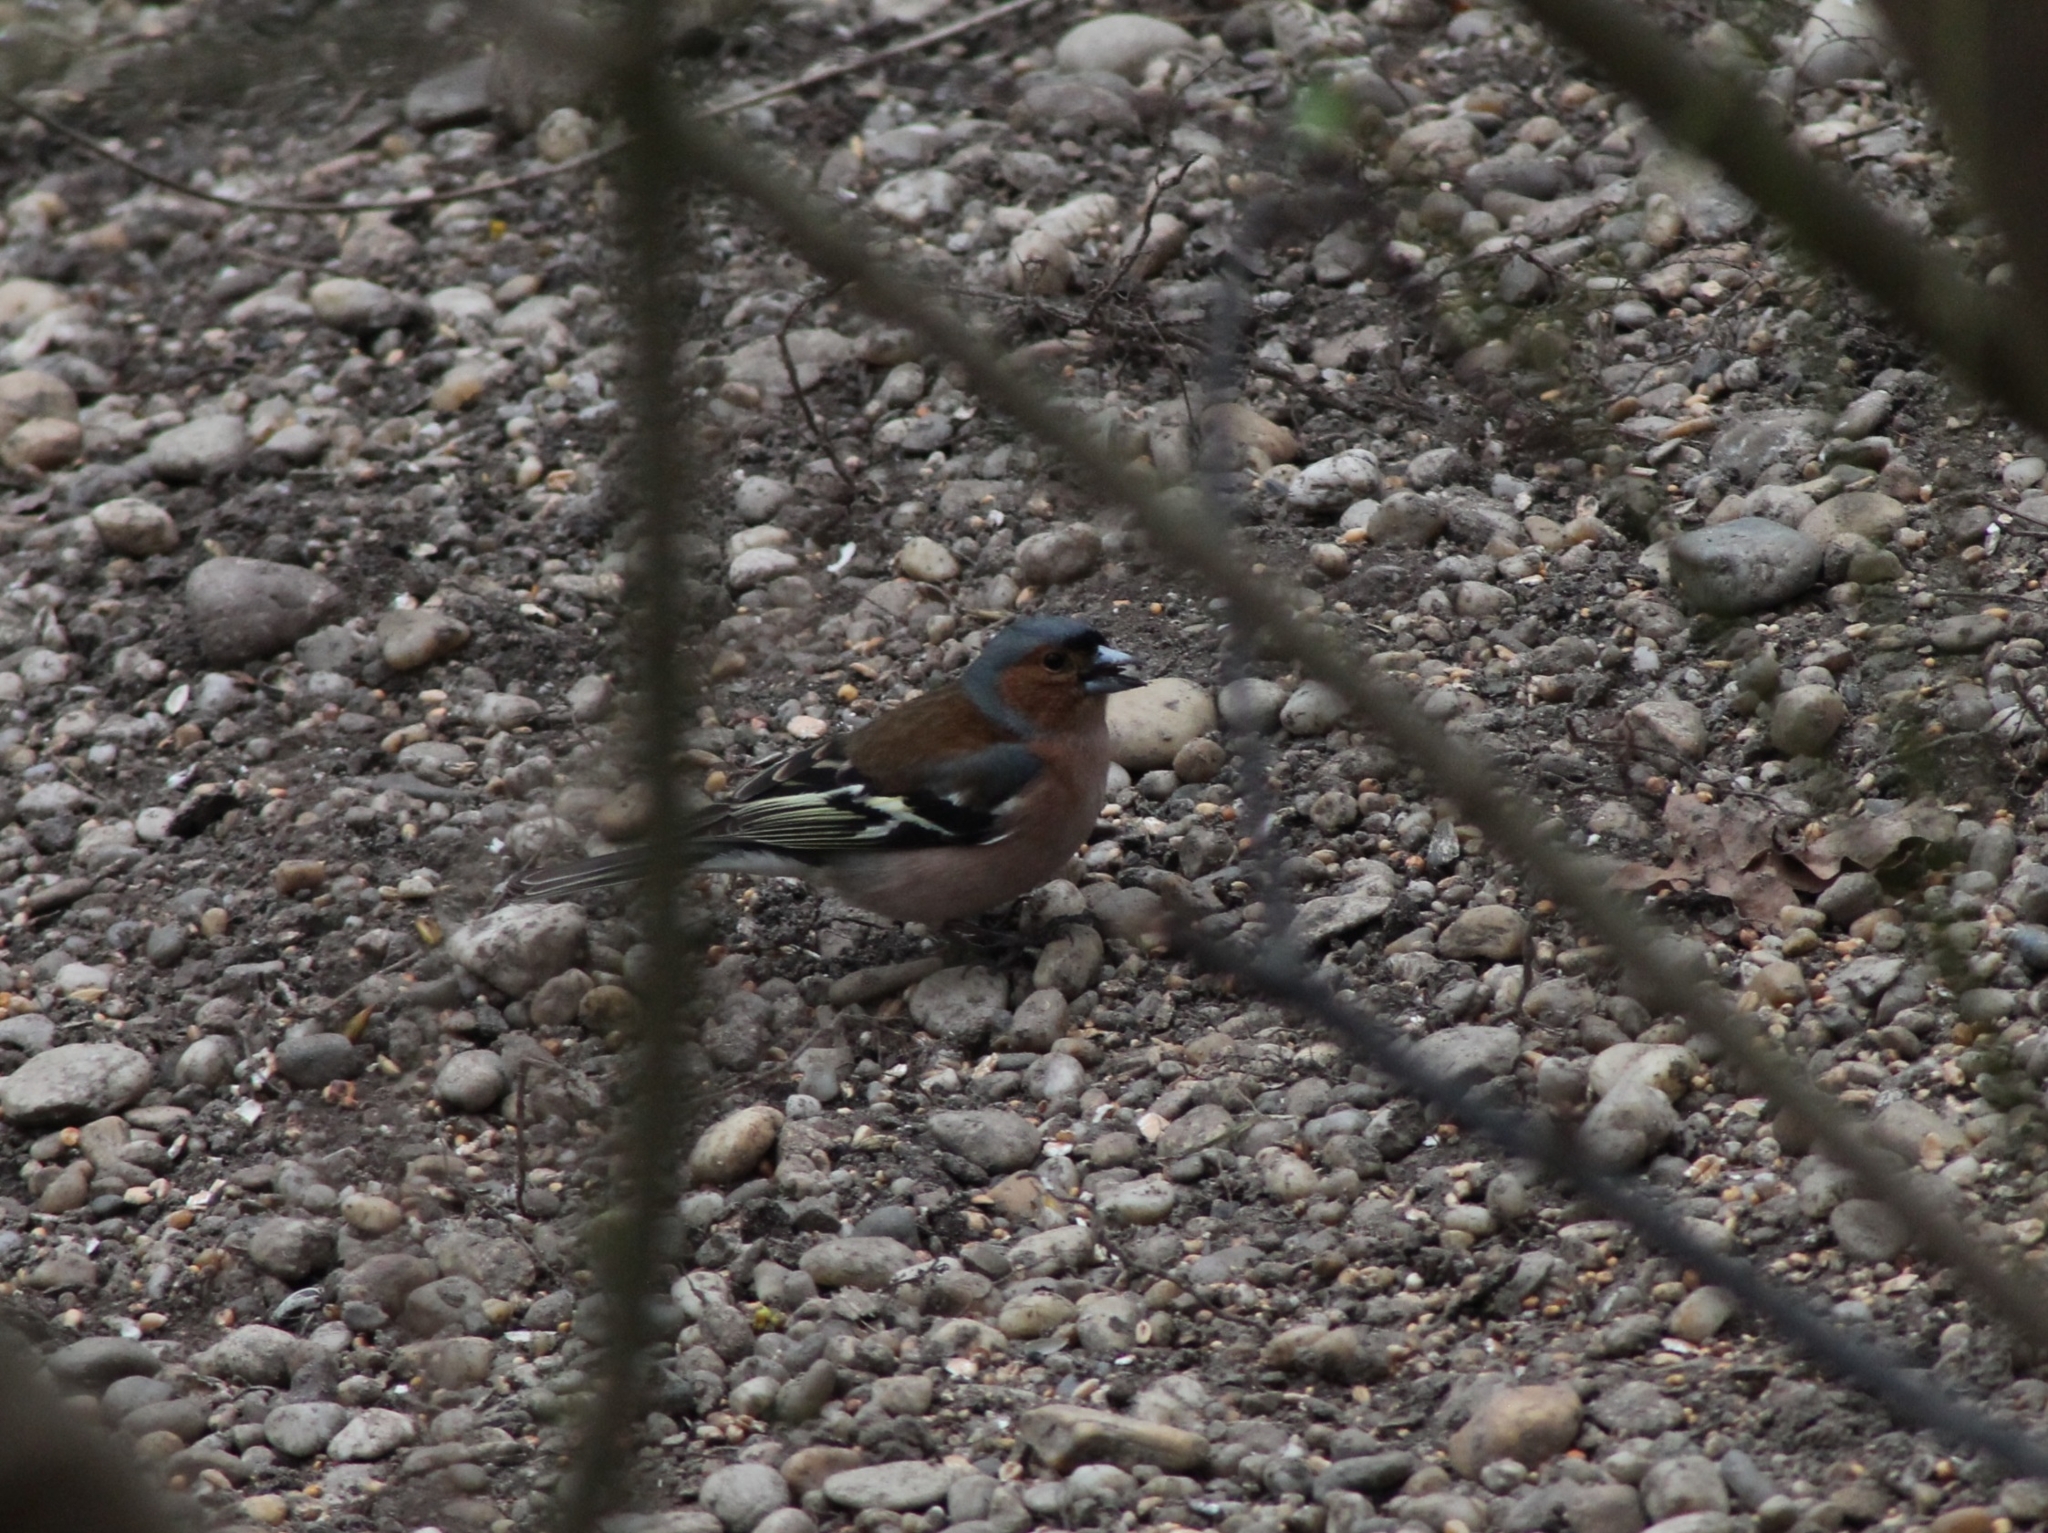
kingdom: Animalia
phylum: Chordata
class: Aves
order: Passeriformes
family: Fringillidae
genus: Fringilla
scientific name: Fringilla coelebs
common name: Common chaffinch
